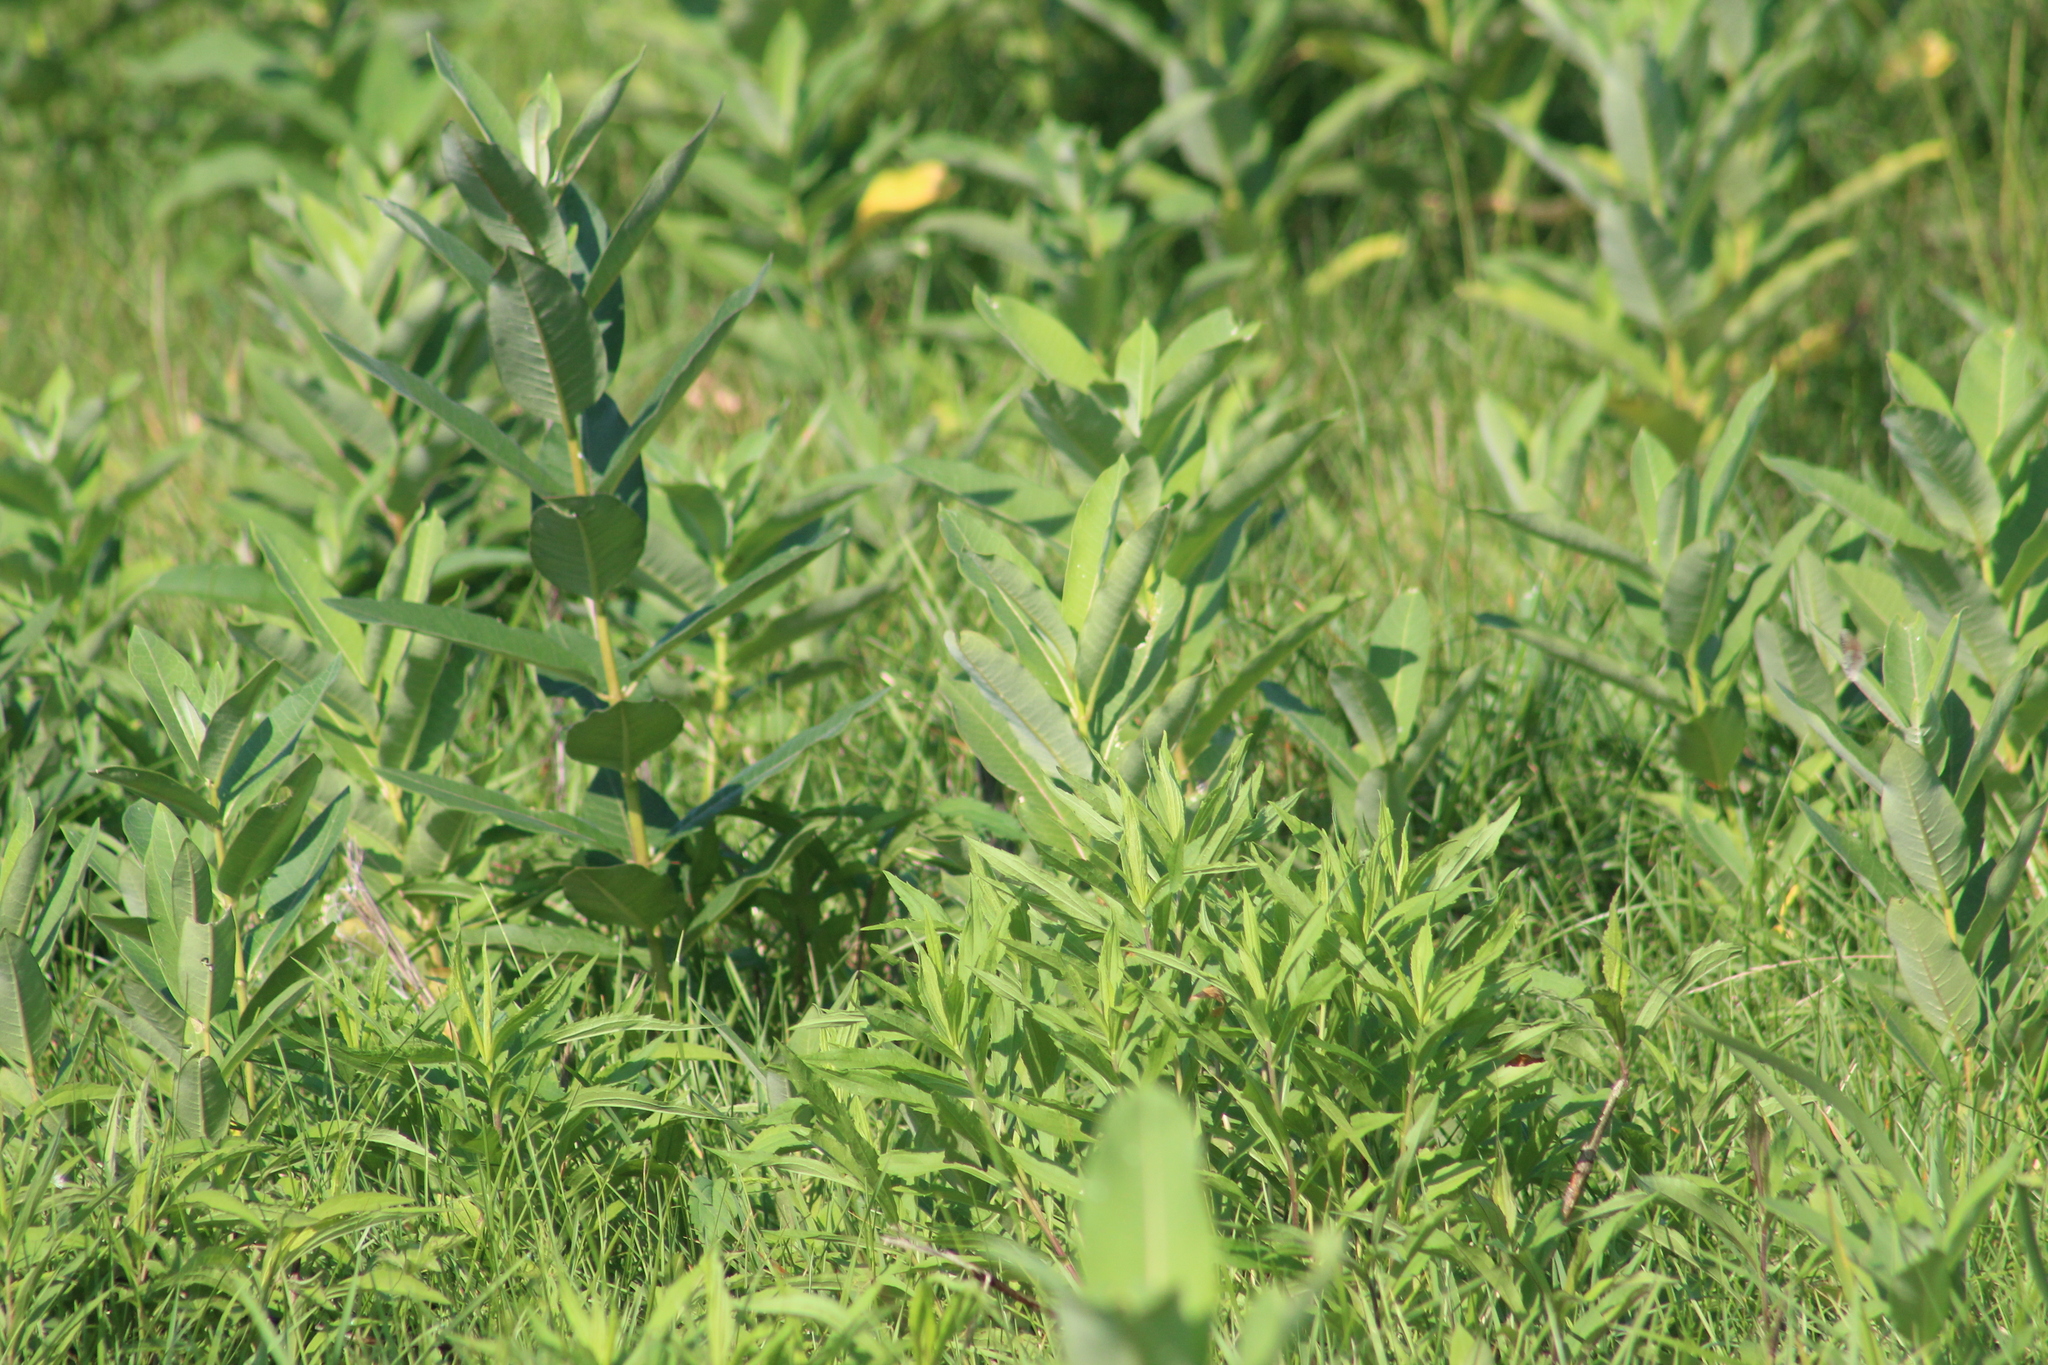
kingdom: Plantae
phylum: Tracheophyta
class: Magnoliopsida
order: Gentianales
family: Apocynaceae
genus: Asclepias
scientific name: Asclepias syriaca
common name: Common milkweed
